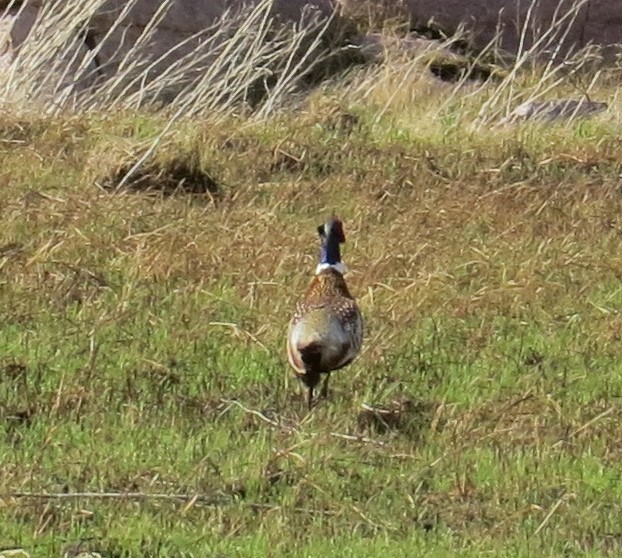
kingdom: Animalia
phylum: Chordata
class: Aves
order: Galliformes
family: Phasianidae
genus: Phasianus
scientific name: Phasianus colchicus
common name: Common pheasant
